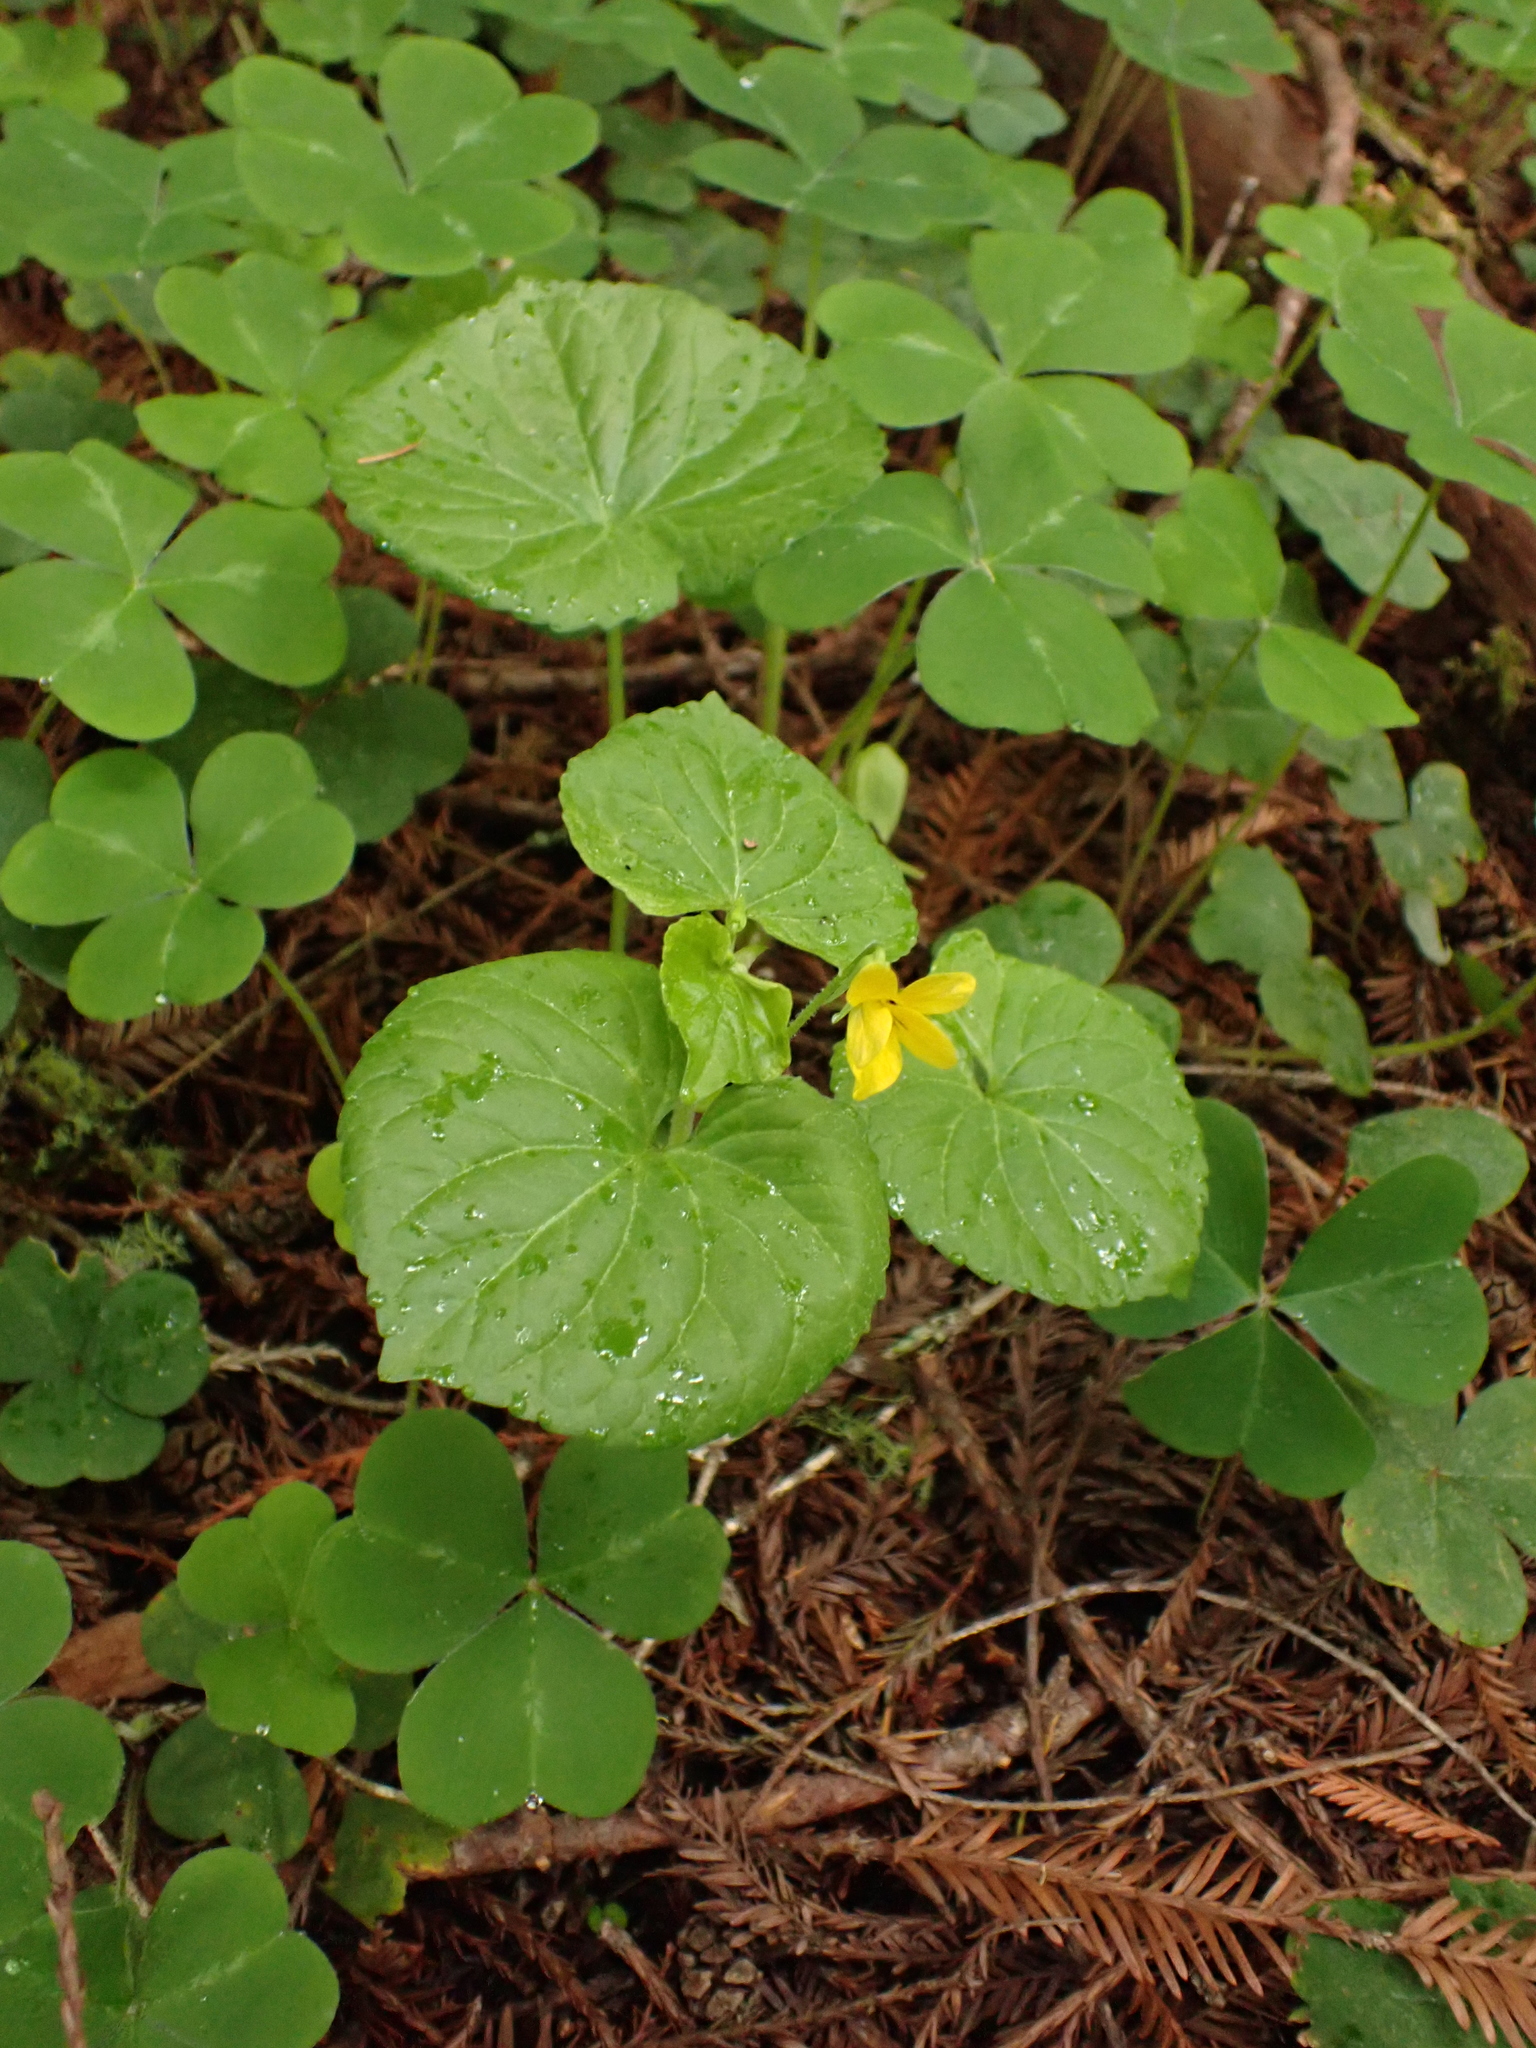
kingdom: Plantae
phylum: Tracheophyta
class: Magnoliopsida
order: Malpighiales
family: Violaceae
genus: Viola
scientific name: Viola glabella
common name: Stream violet
